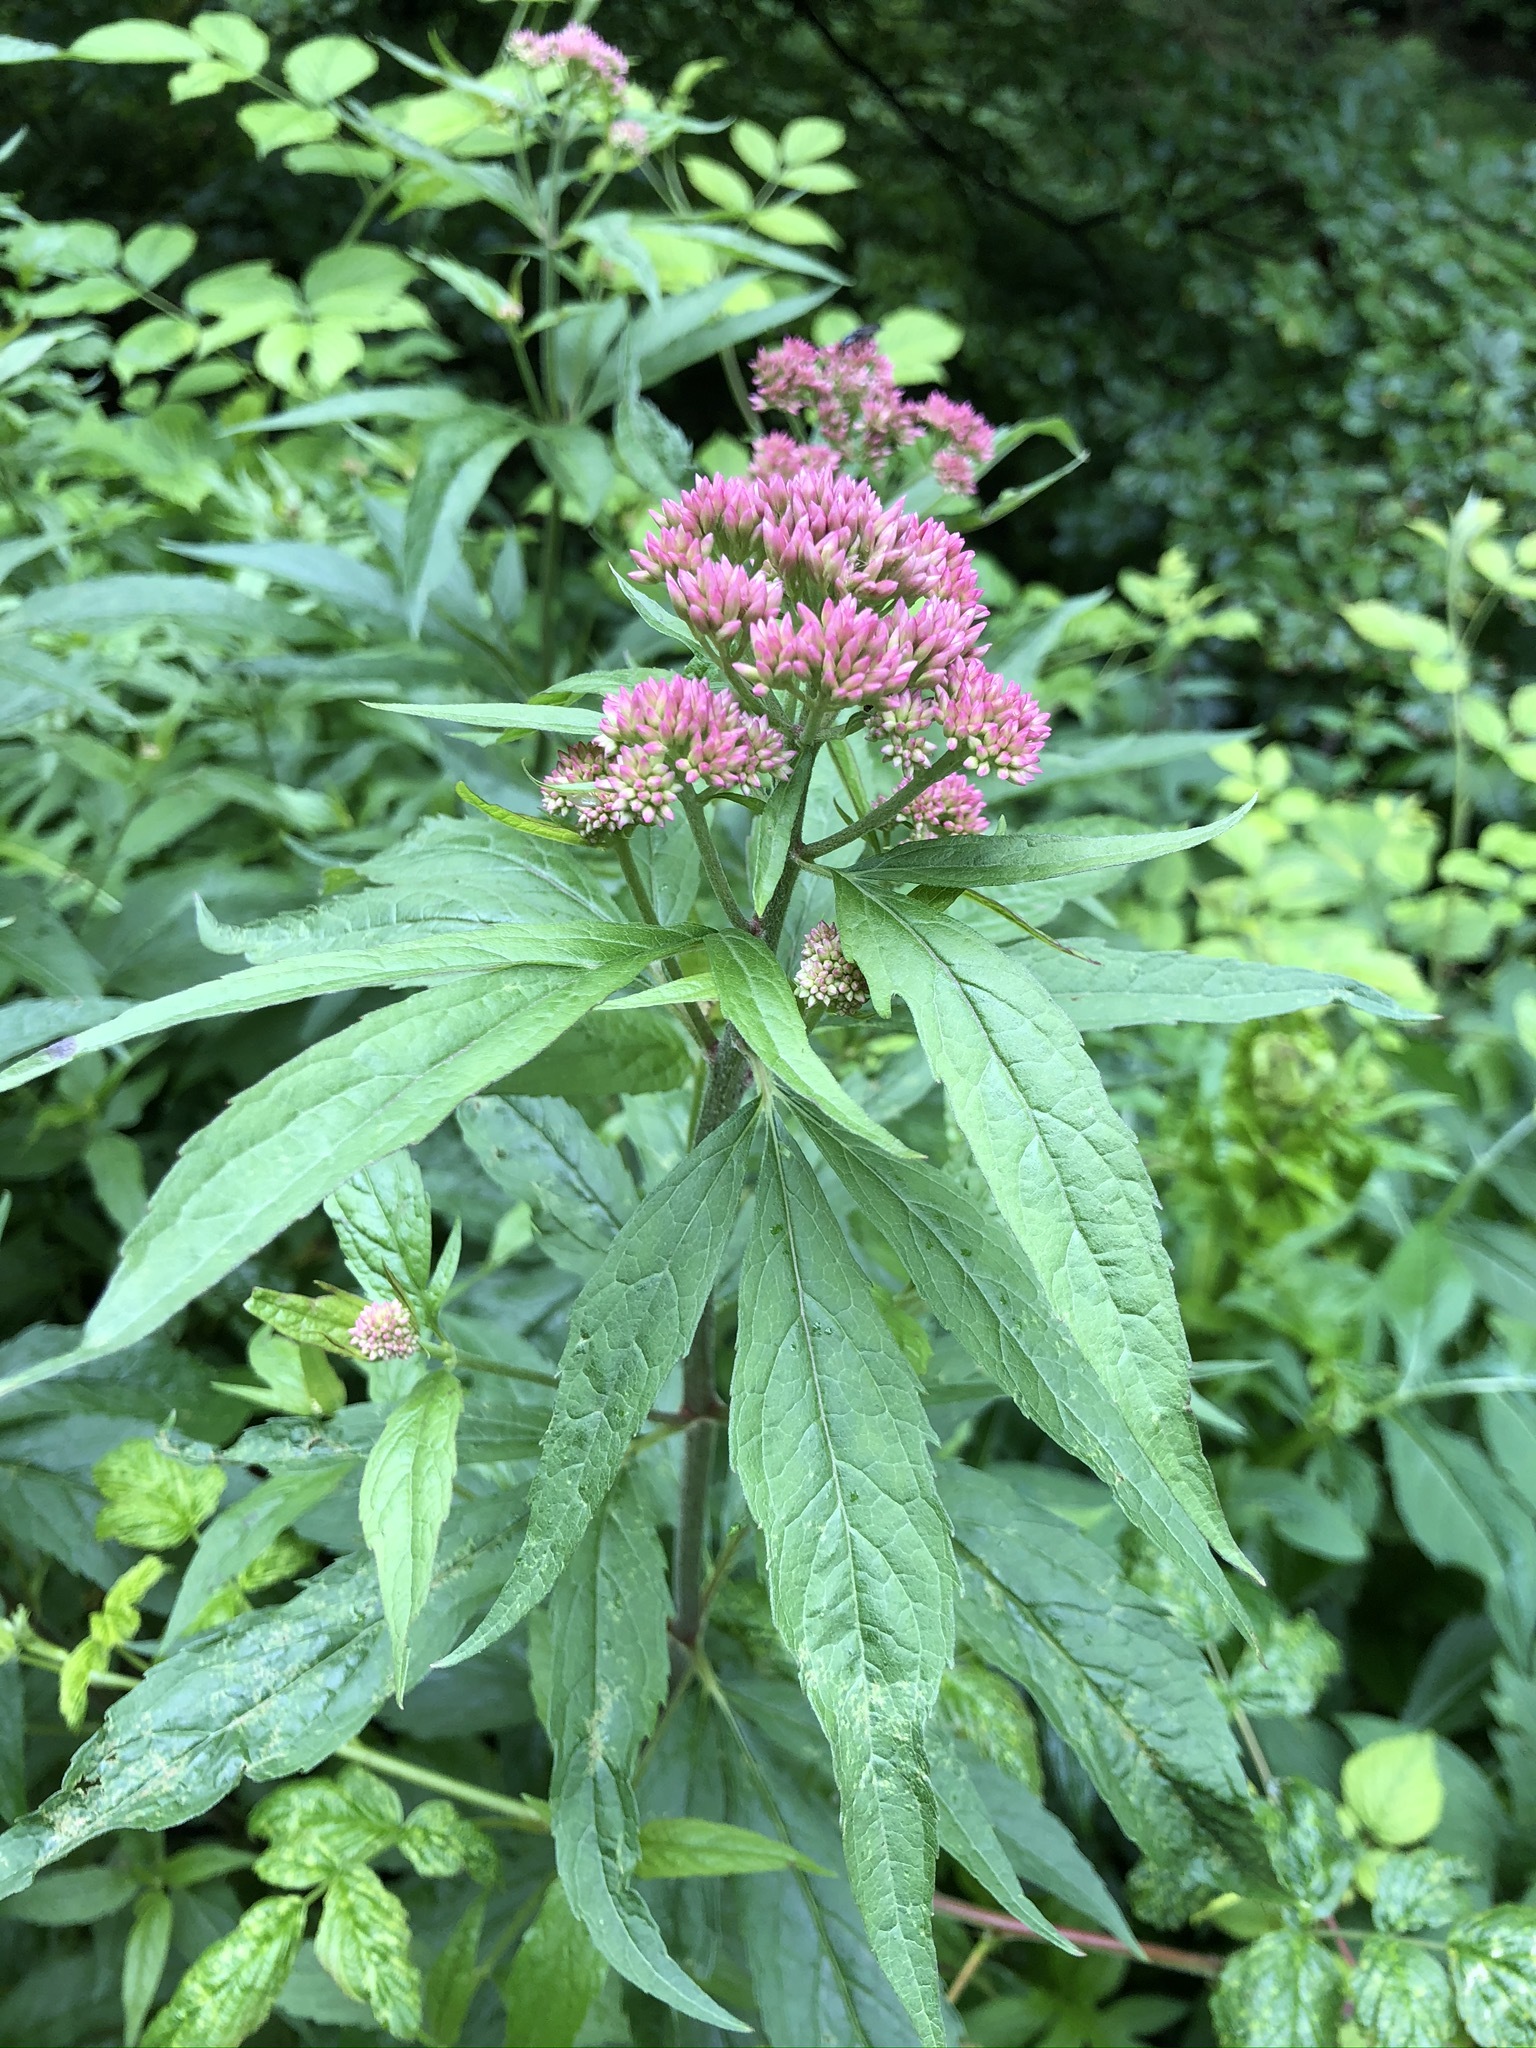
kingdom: Plantae
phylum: Tracheophyta
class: Magnoliopsida
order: Asterales
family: Asteraceae
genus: Eupatorium
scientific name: Eupatorium cannabinum
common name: Hemp-agrimony
